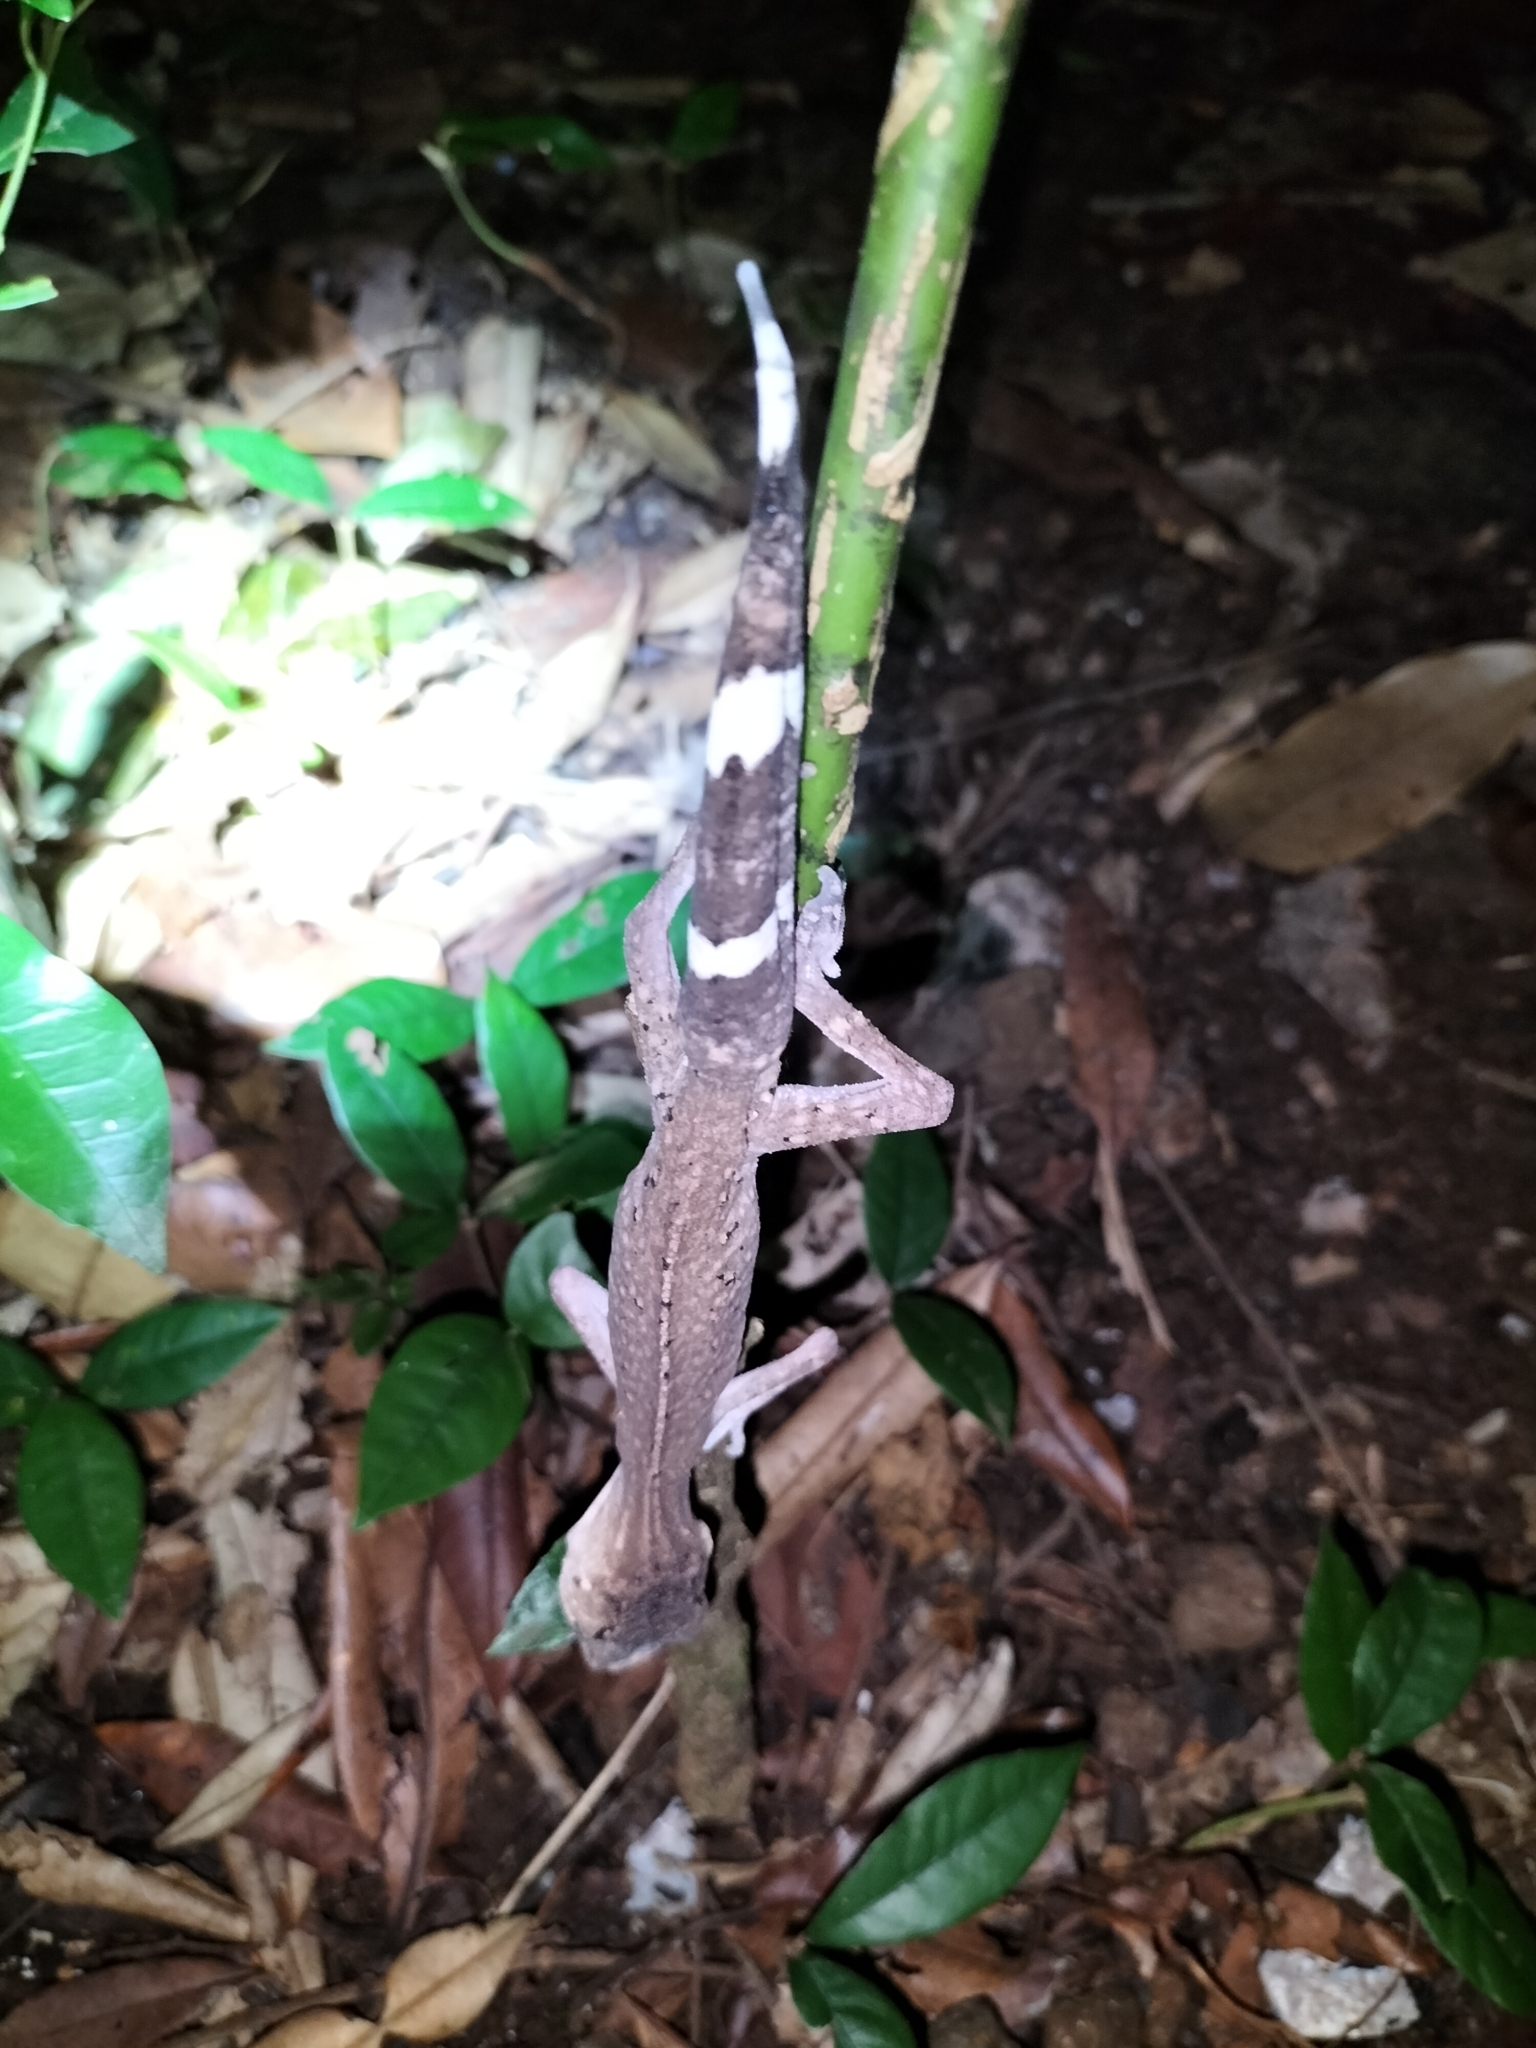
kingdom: Animalia
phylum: Chordata
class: Squamata
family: Carphodactylidae
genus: Carphodactylus
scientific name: Carphodactylus laevis
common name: Chameleon gecko
